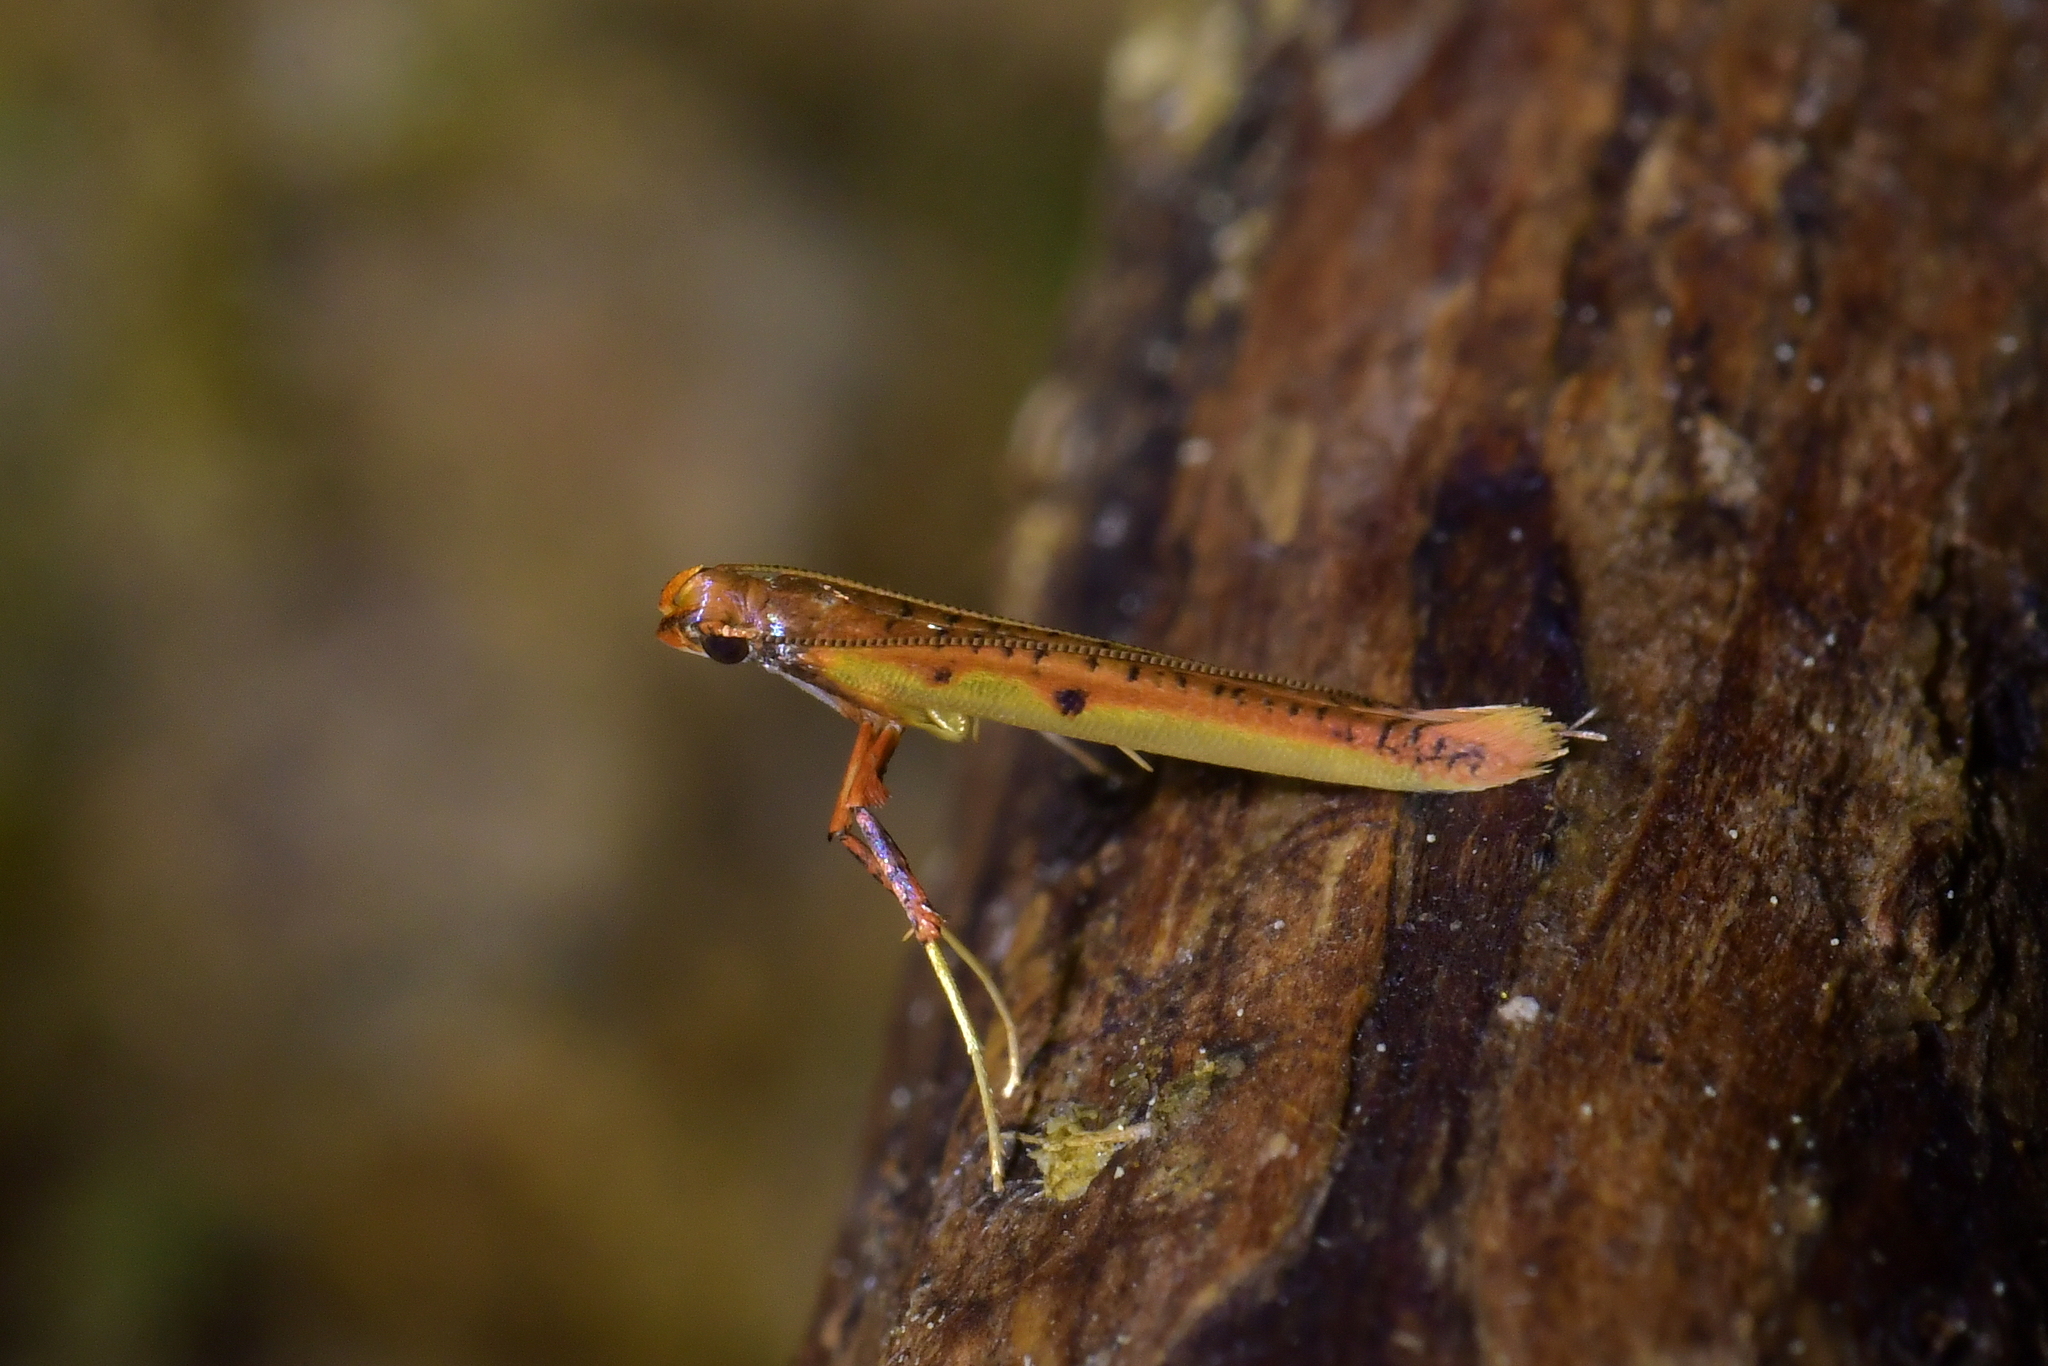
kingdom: Animalia
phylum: Arthropoda
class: Insecta
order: Lepidoptera
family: Gracillariidae
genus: Caloptilia
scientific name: Caloptilia chrysitis
